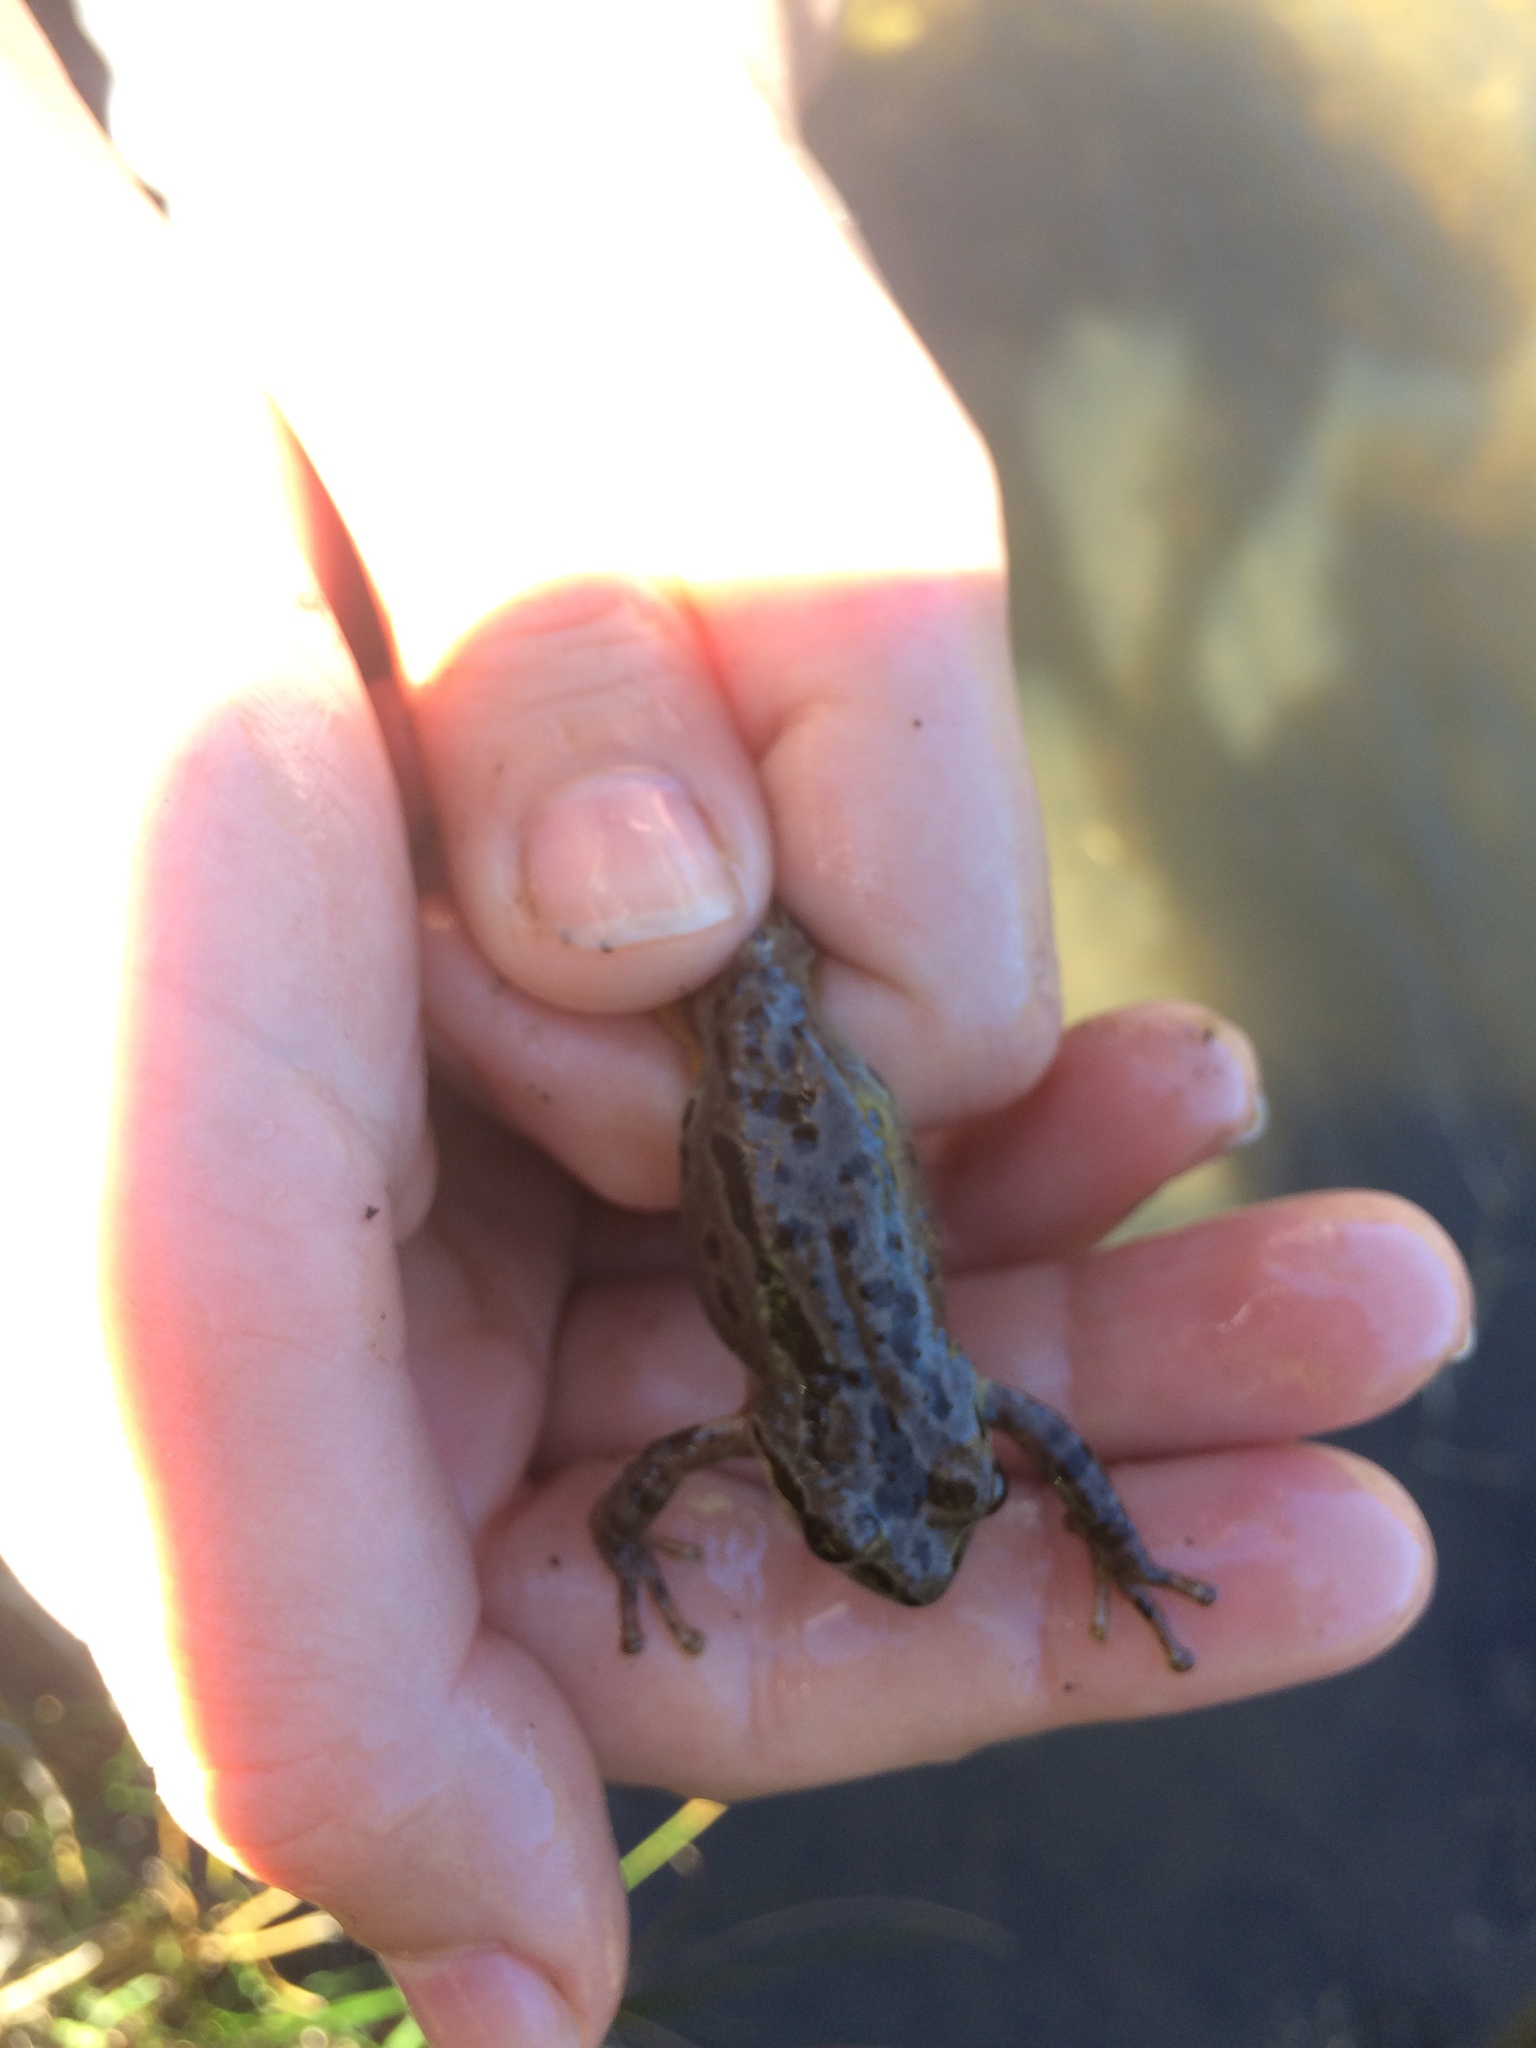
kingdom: Animalia
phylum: Chordata
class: Amphibia
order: Anura
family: Hylidae
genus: Pseudacris
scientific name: Pseudacris regilla
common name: Pacific chorus frog
